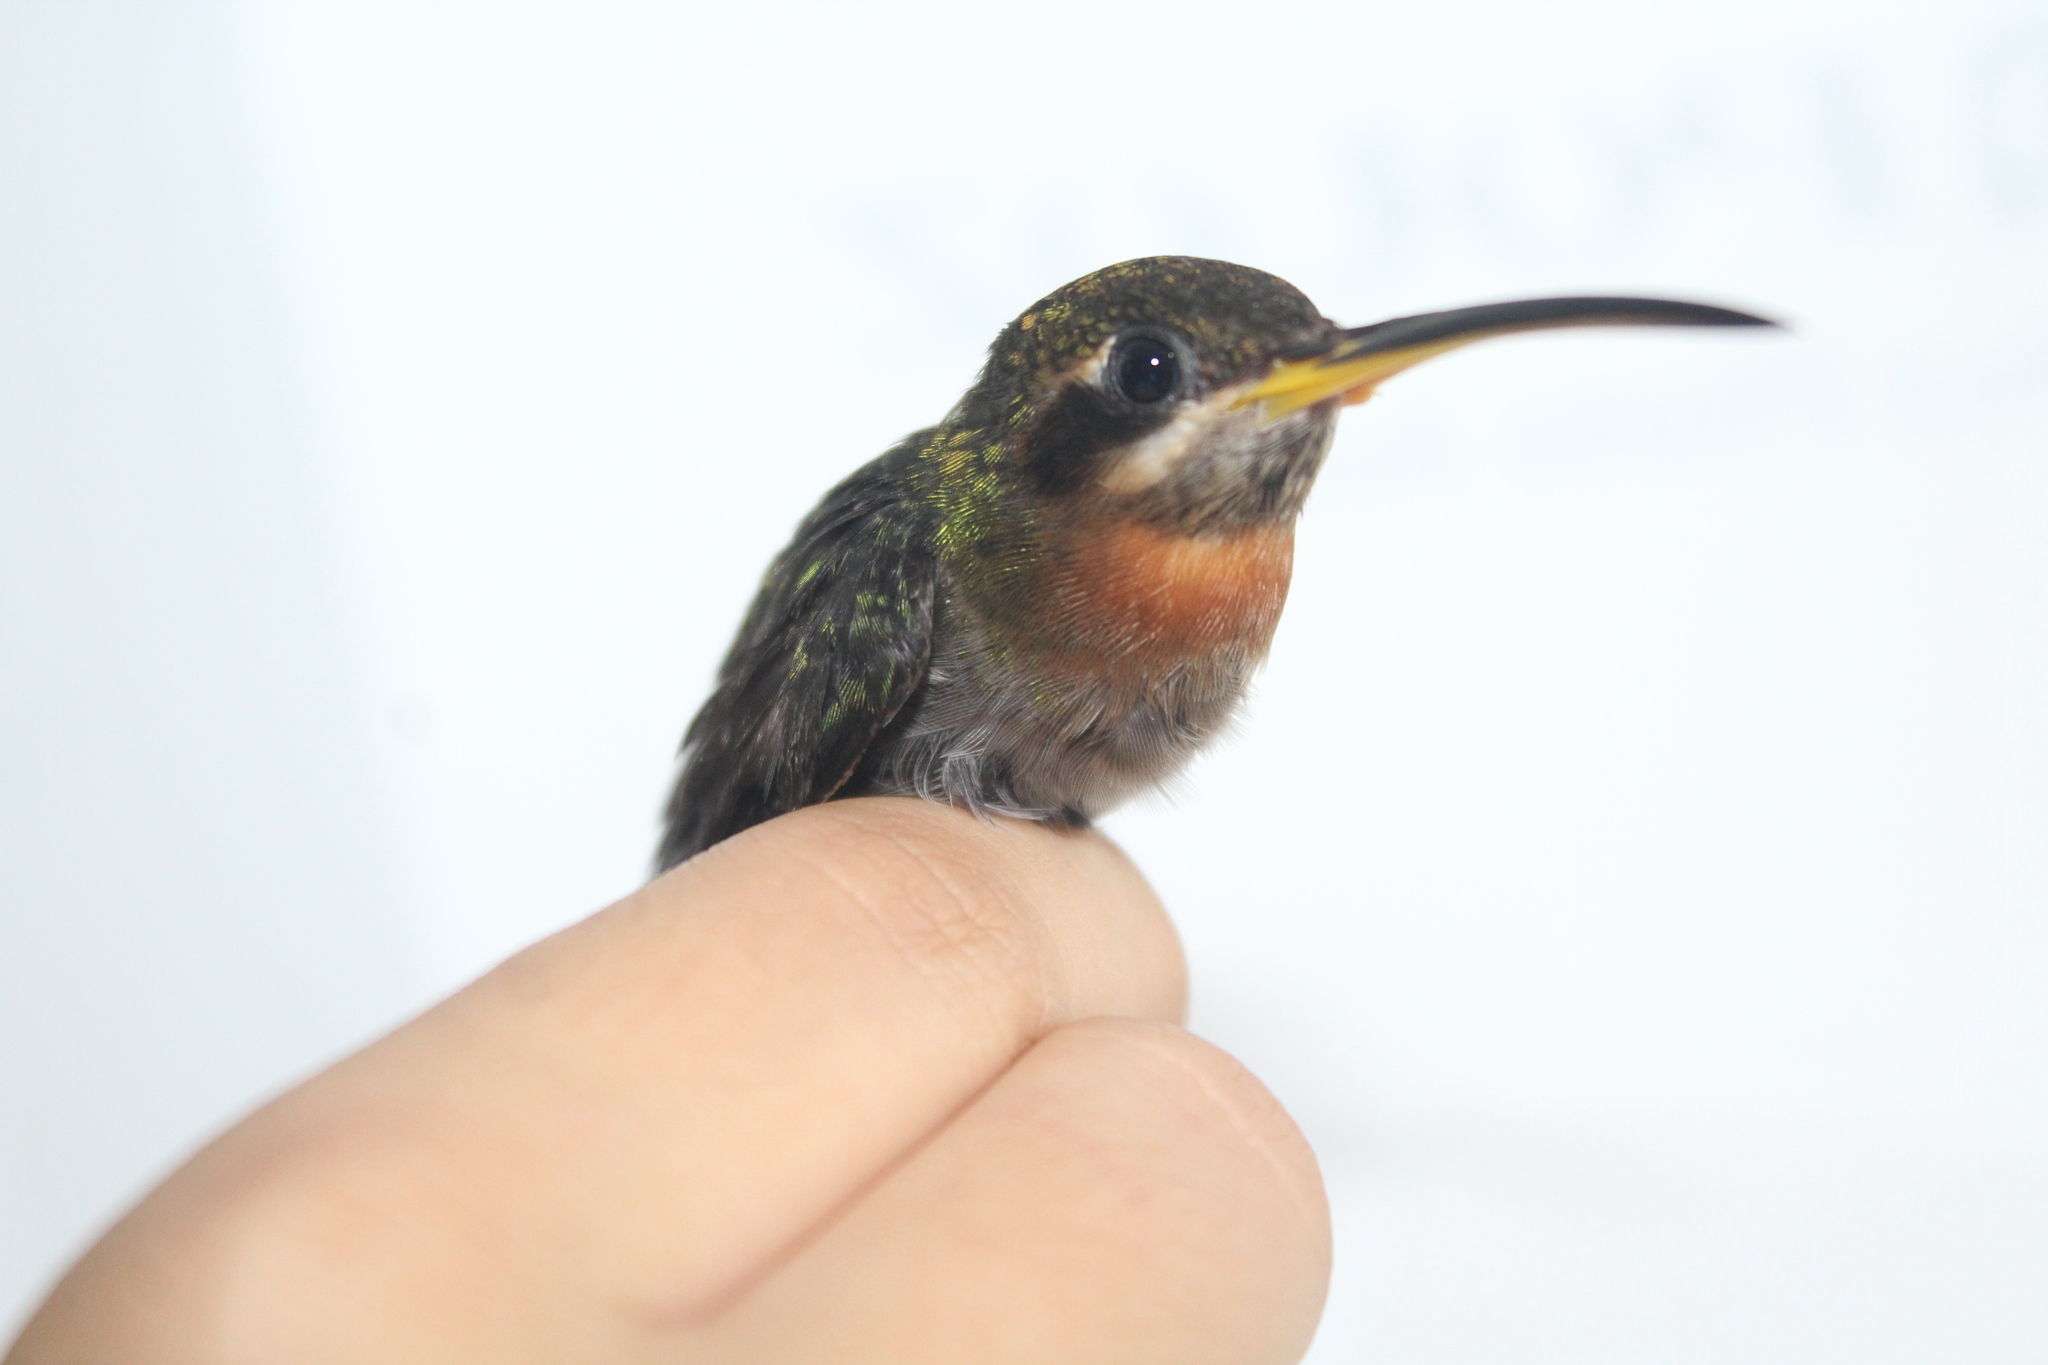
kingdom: Animalia
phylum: Chordata
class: Aves
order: Apodiformes
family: Trochilidae
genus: Threnetes
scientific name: Threnetes ruckeri
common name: Band-tailed barbthroat
